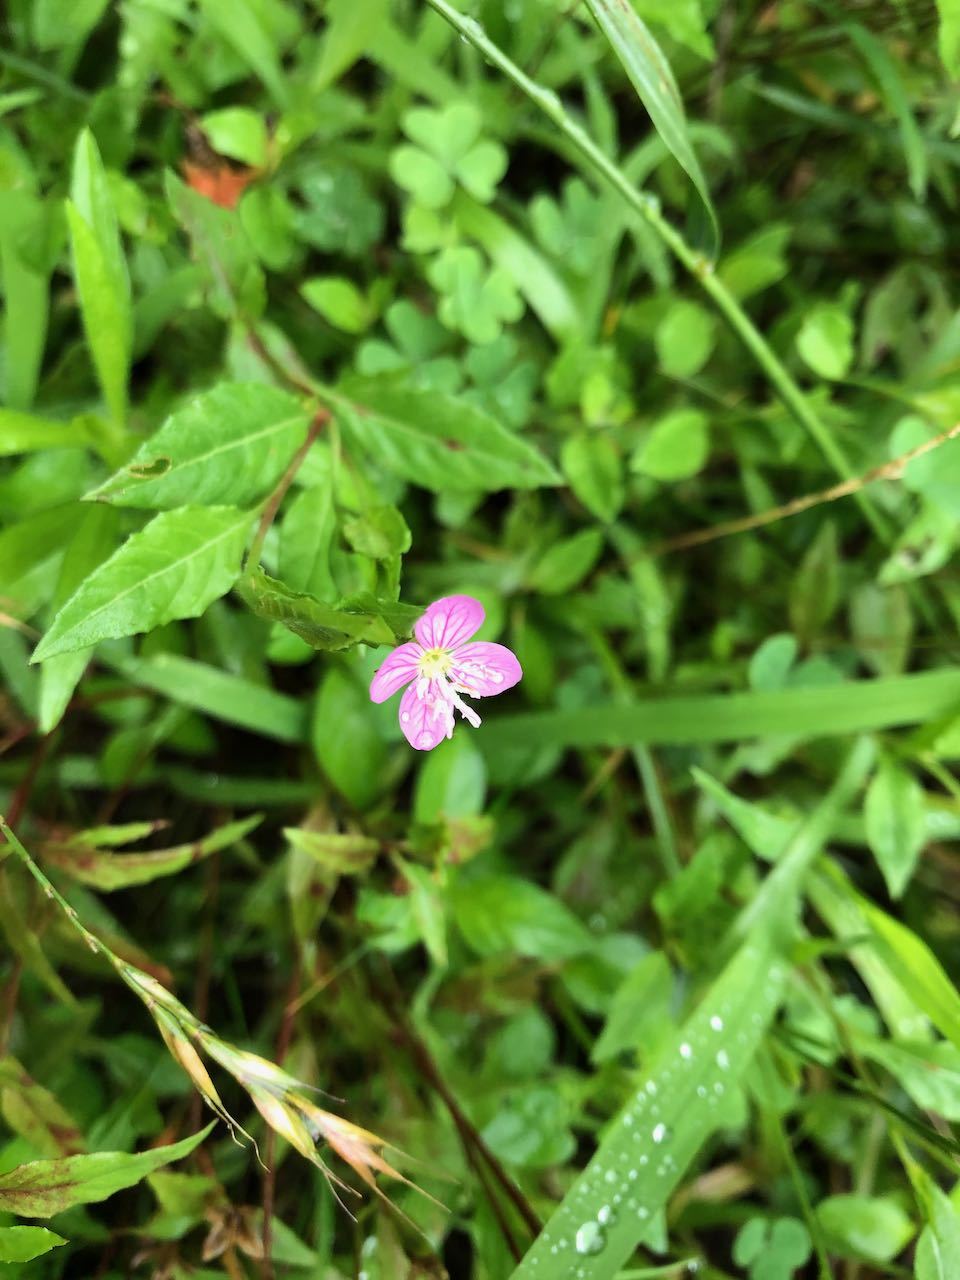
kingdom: Plantae
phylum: Tracheophyta
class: Magnoliopsida
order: Myrtales
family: Onagraceae
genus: Oenothera
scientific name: Oenothera rosea
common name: Rosy evening-primrose
